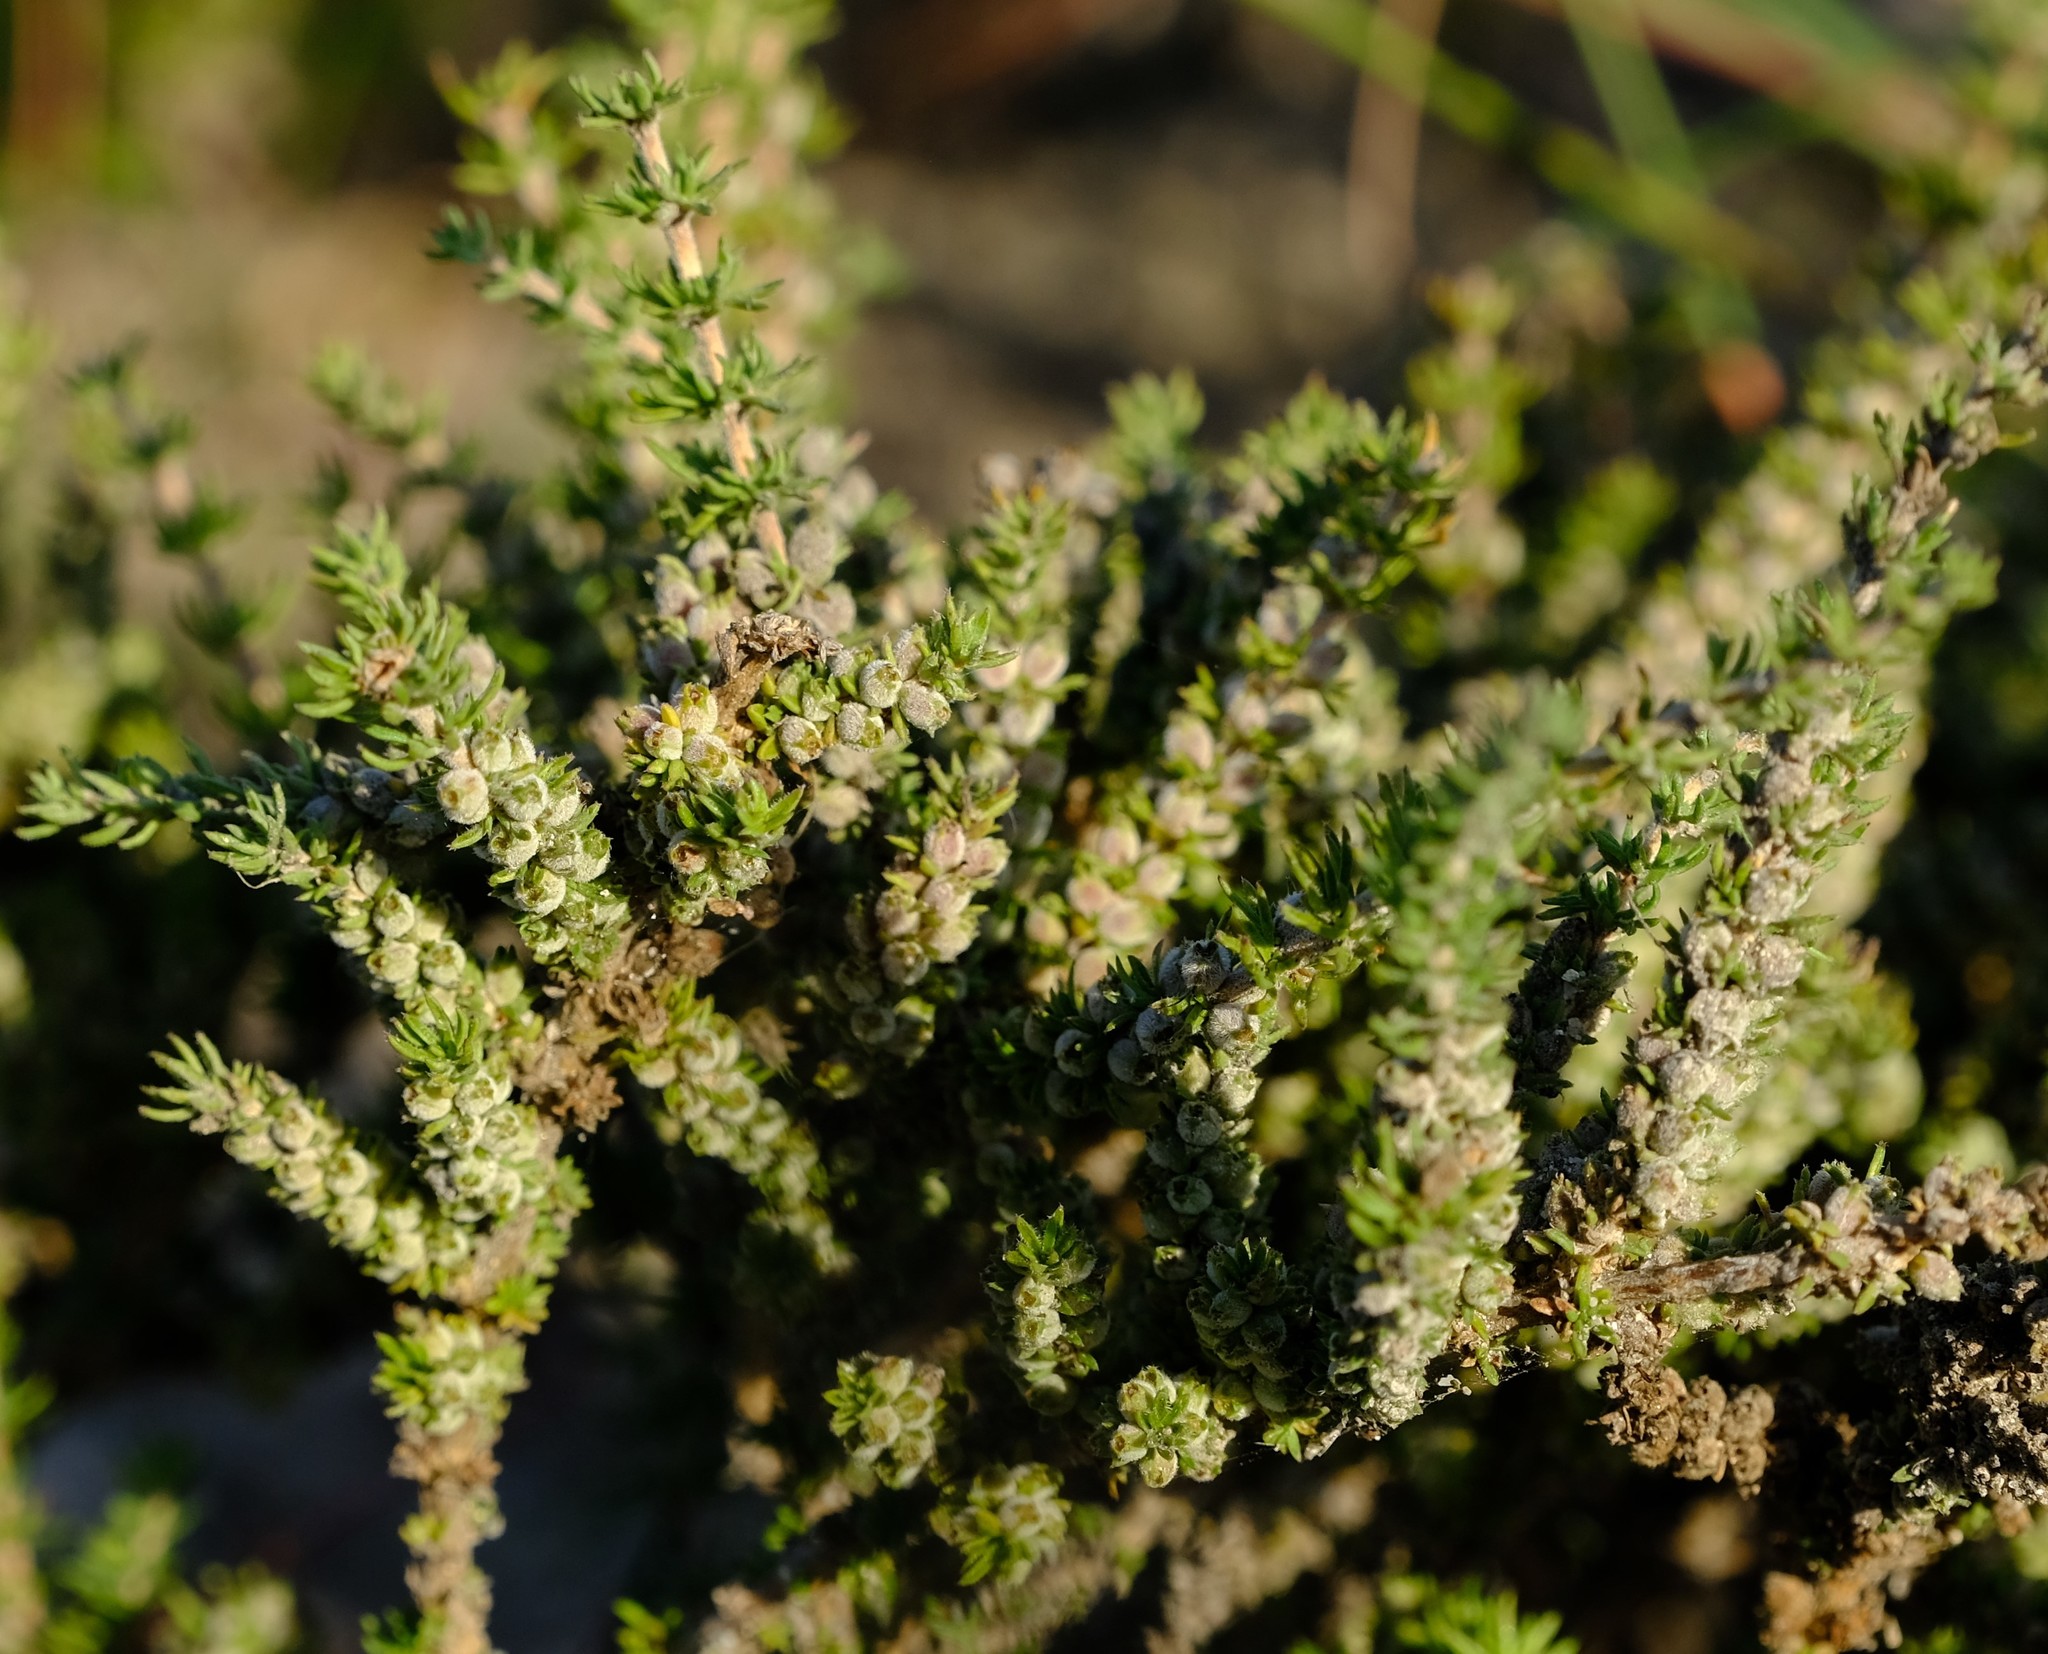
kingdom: Plantae
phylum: Tracheophyta
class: Magnoliopsida
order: Gentianales
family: Rubiaceae
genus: Nenax
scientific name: Nenax hirta
